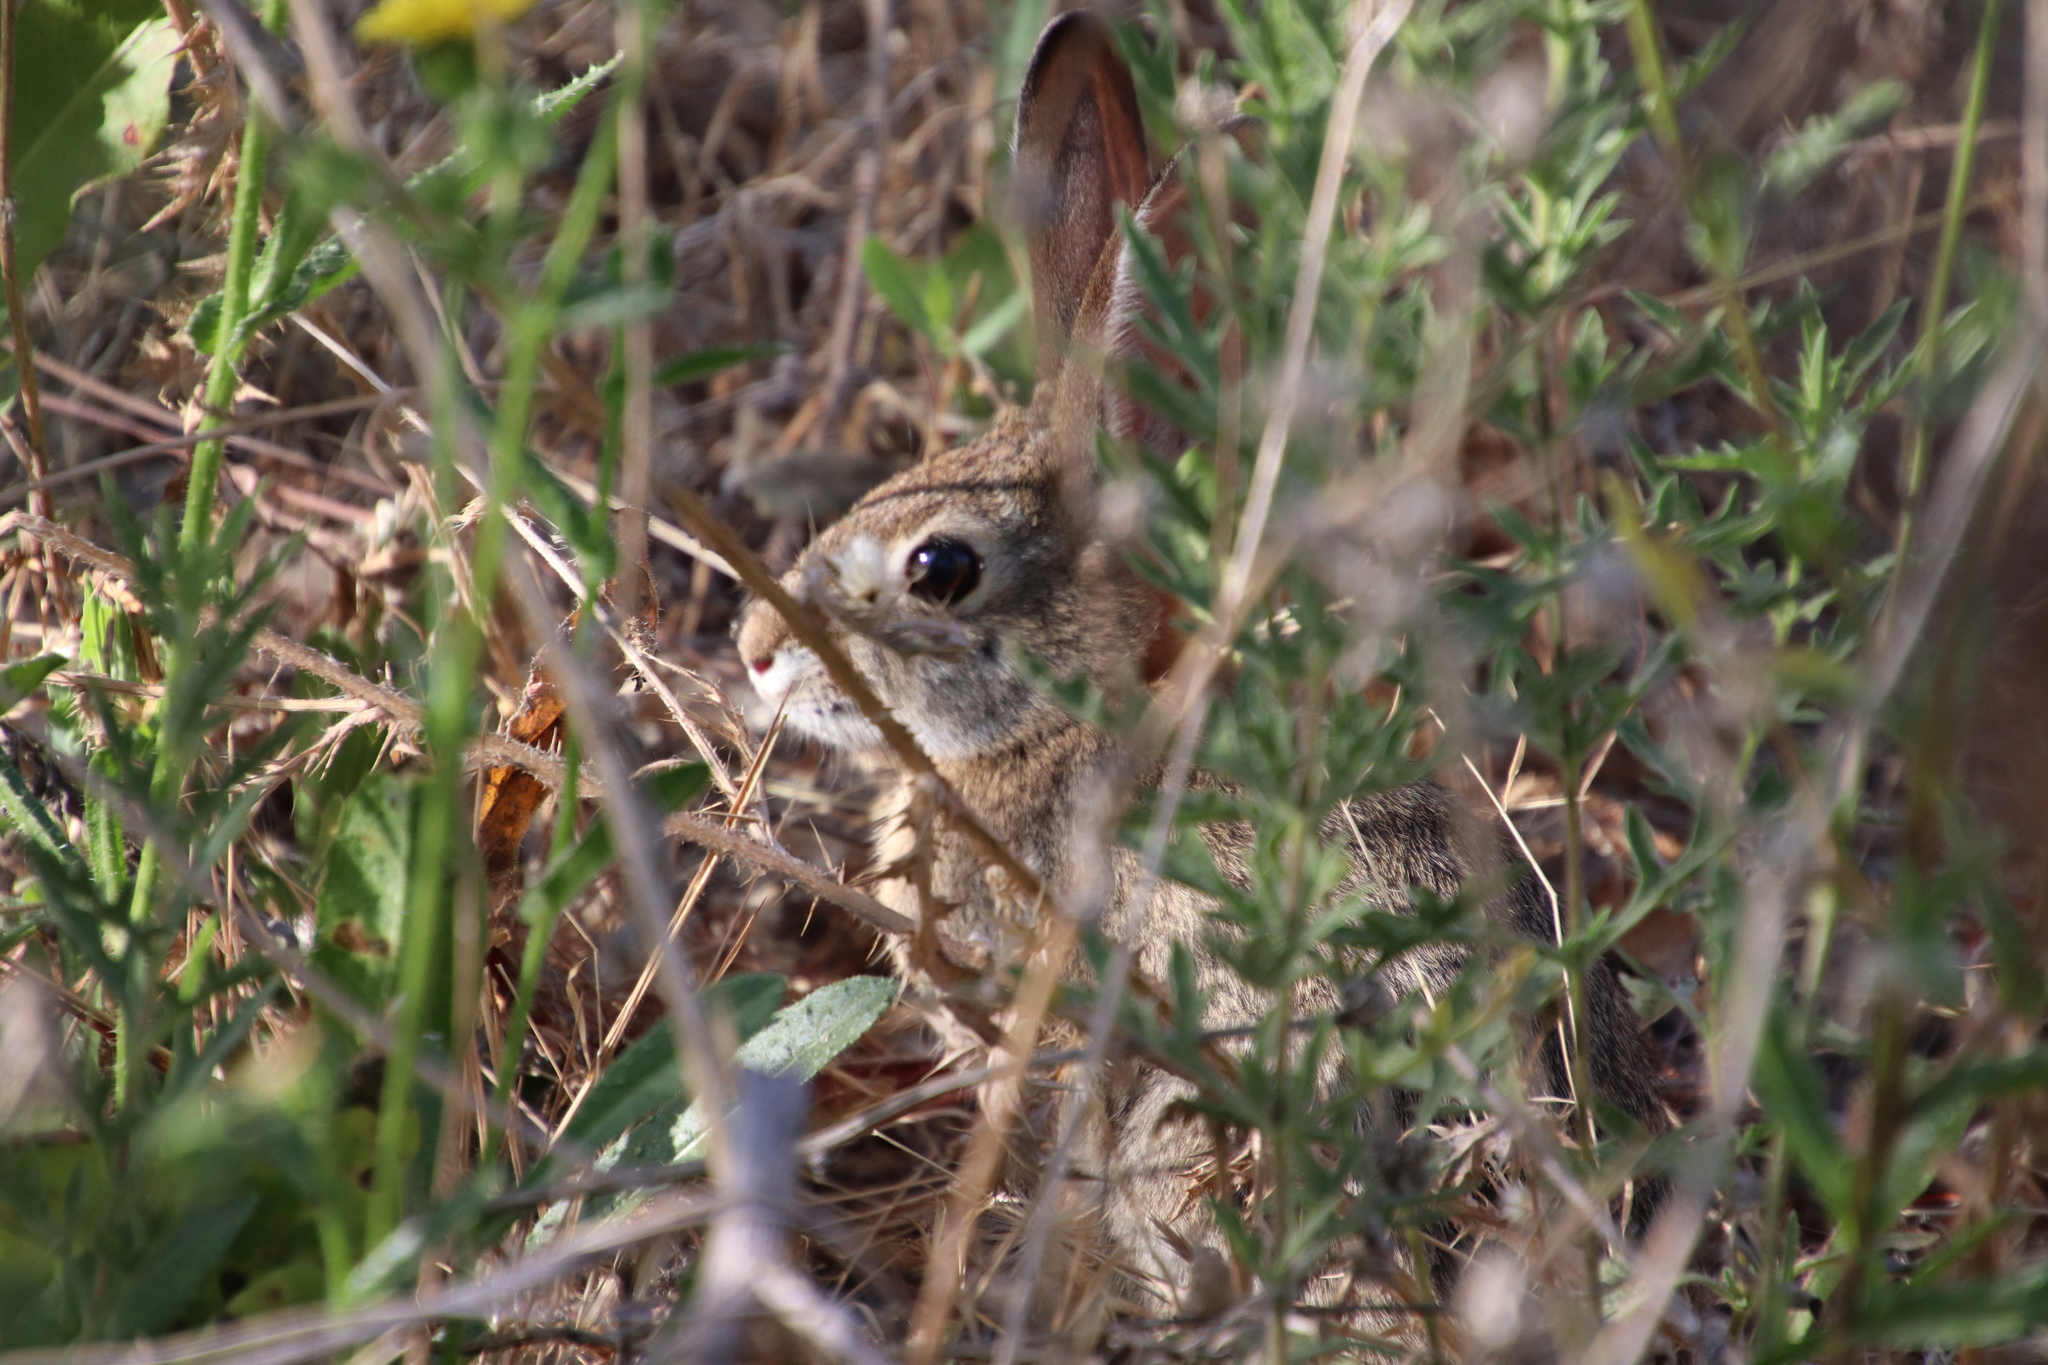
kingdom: Animalia
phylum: Chordata
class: Mammalia
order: Lagomorpha
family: Leporidae
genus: Sylvilagus
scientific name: Sylvilagus audubonii
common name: Desert cottontail
